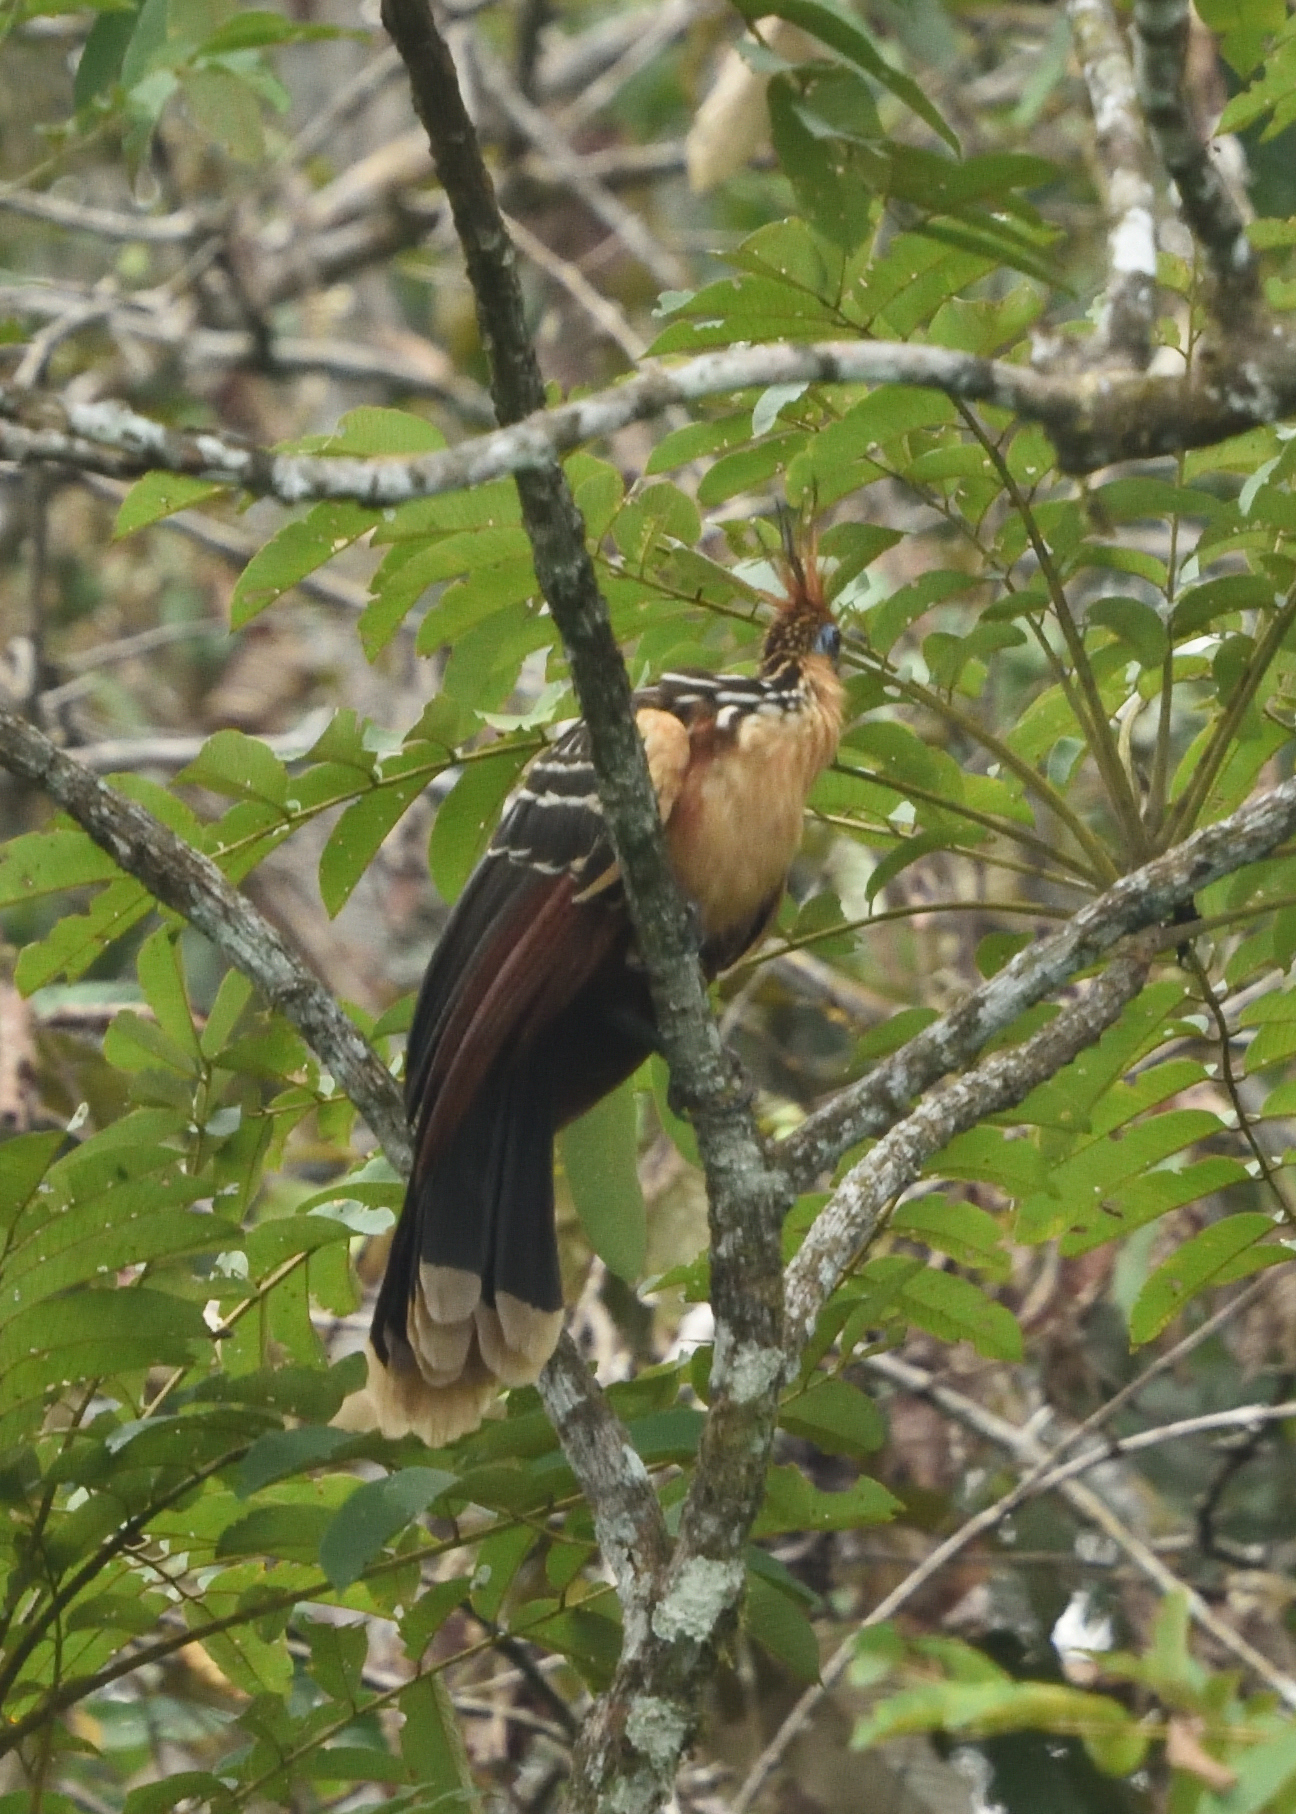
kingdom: Animalia
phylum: Chordata
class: Aves
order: Opisthocomiformes
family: Opisthocomidae
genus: Opisthocomus
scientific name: Opisthocomus hoazin
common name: Hoatzin
